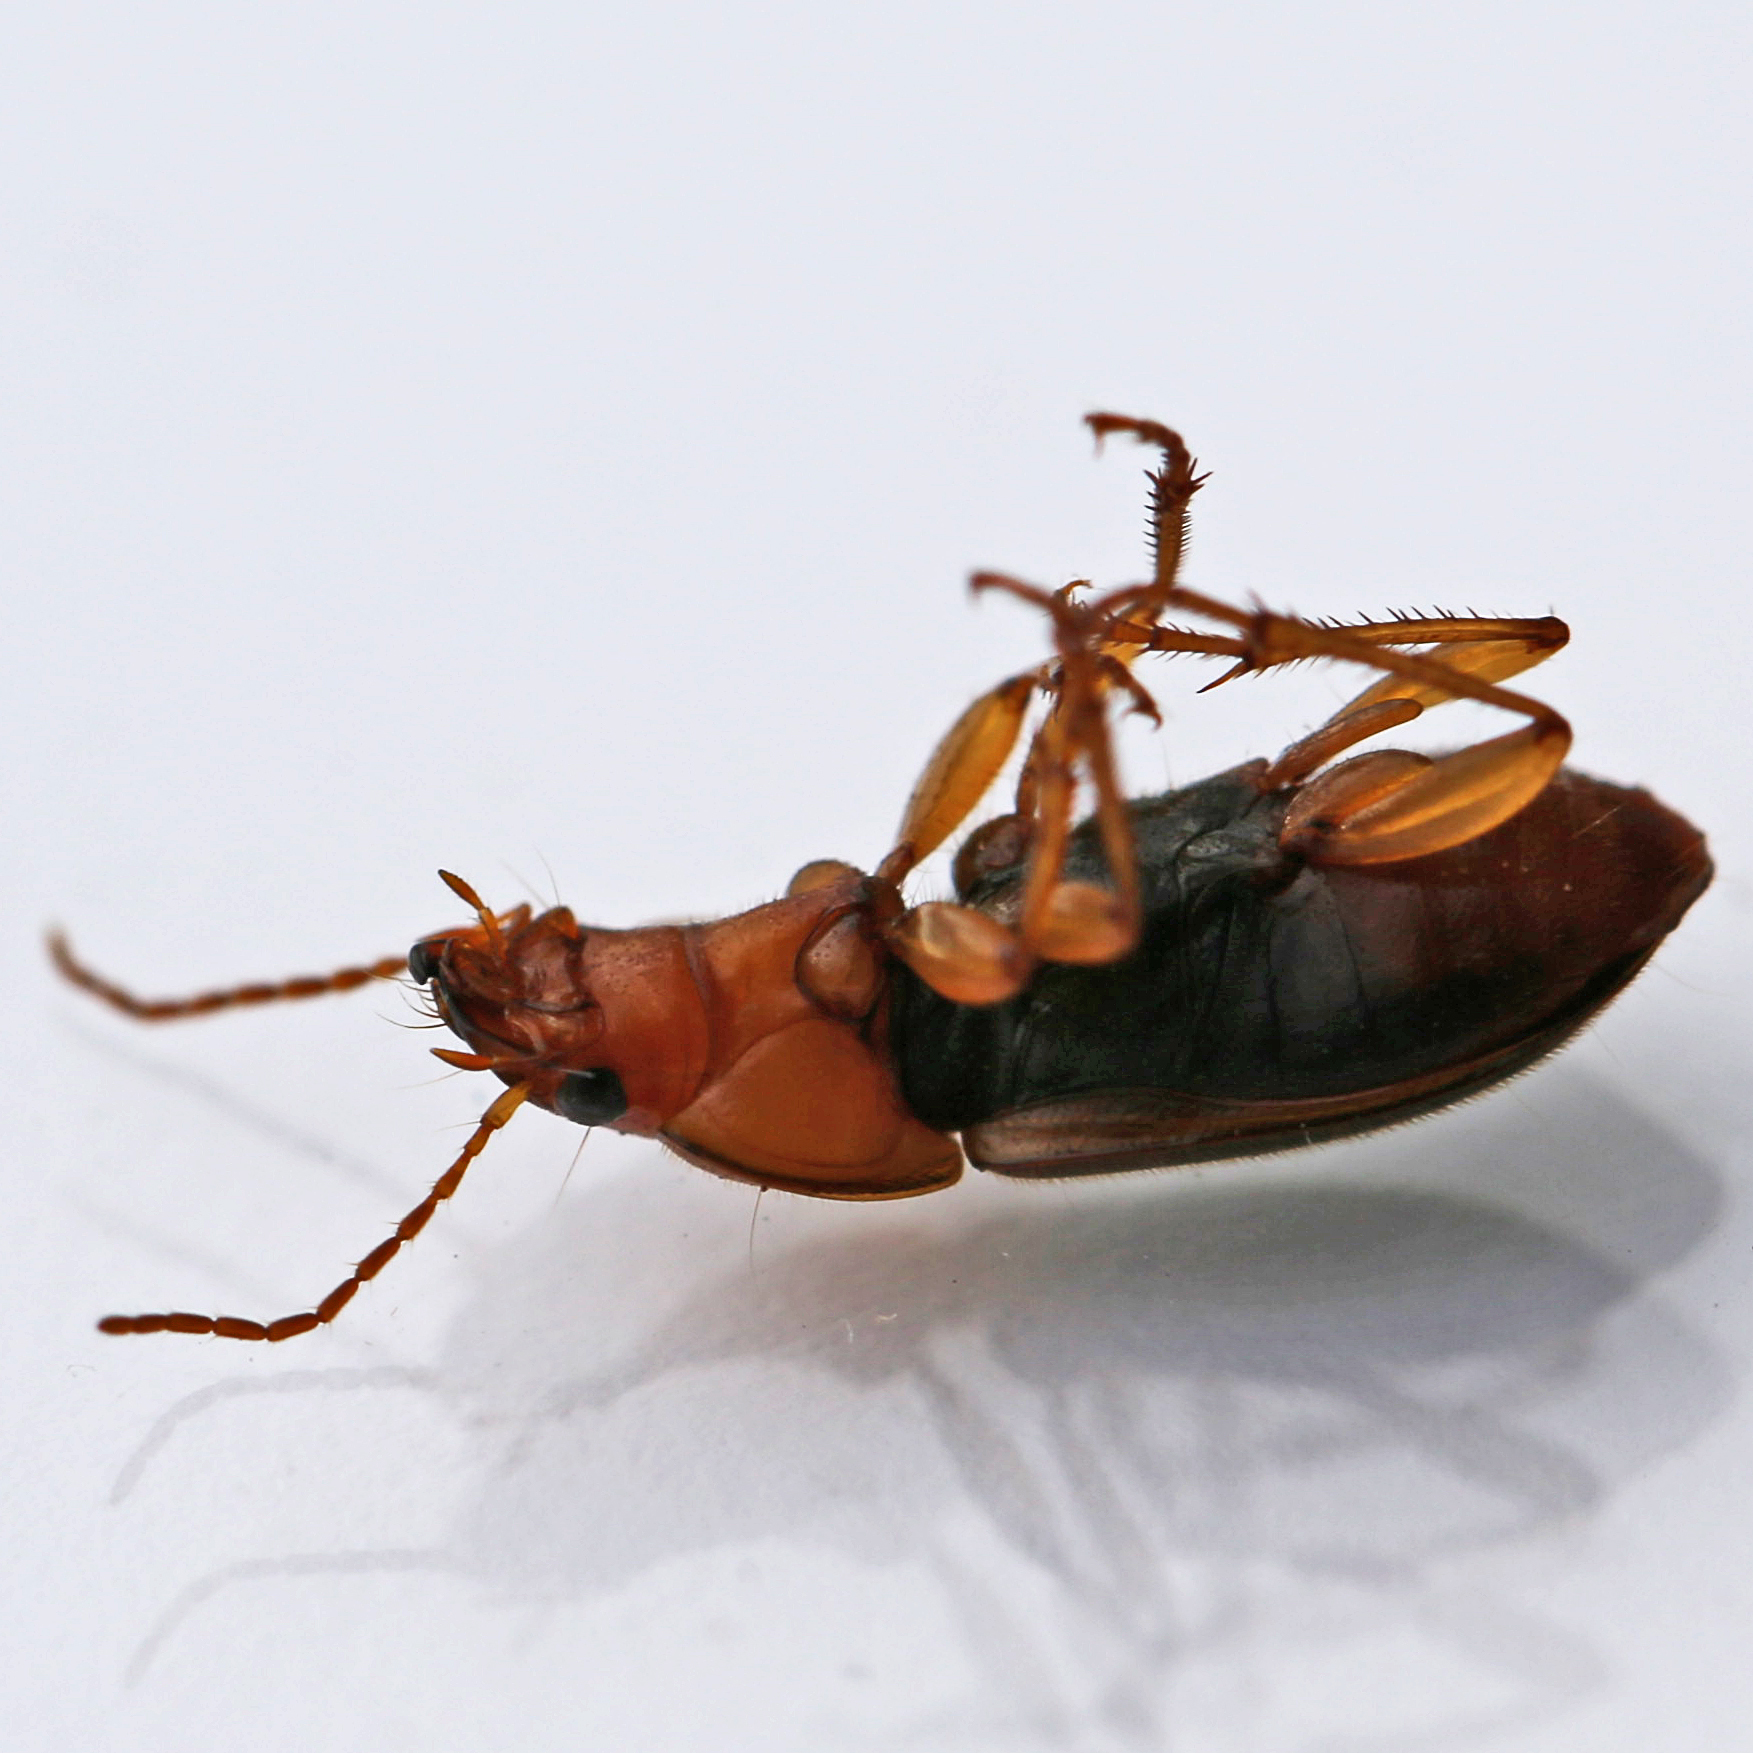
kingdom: Animalia
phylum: Arthropoda
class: Insecta
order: Coleoptera
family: Carabidae
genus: Amphasia
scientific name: Amphasia interstitialis
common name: Red-headed ground beetle
